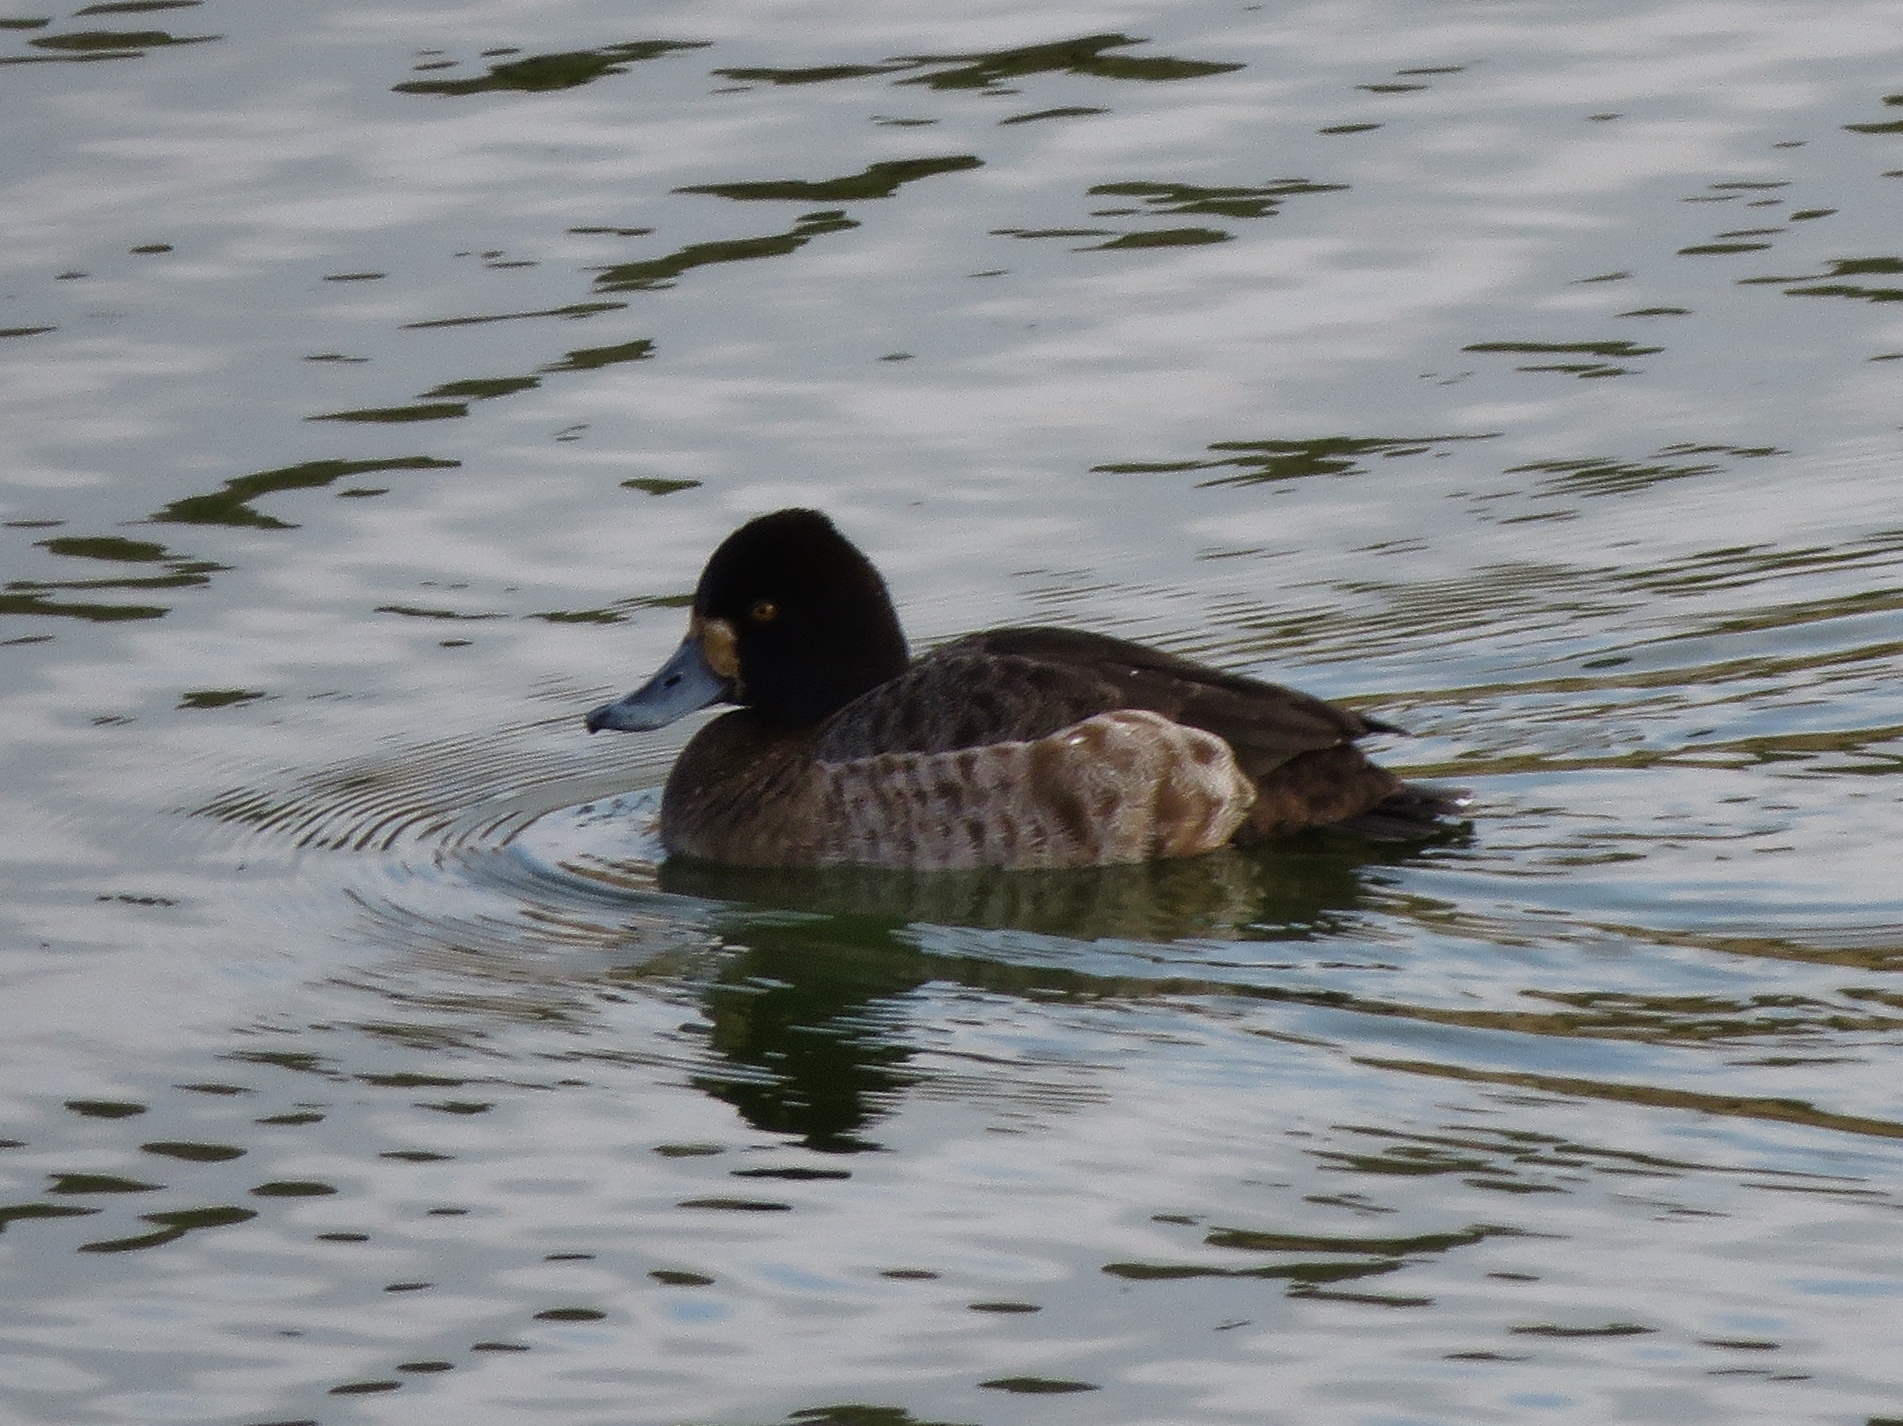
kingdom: Animalia
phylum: Chordata
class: Aves
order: Anseriformes
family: Anatidae
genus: Aythya
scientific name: Aythya affinis
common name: Lesser scaup
